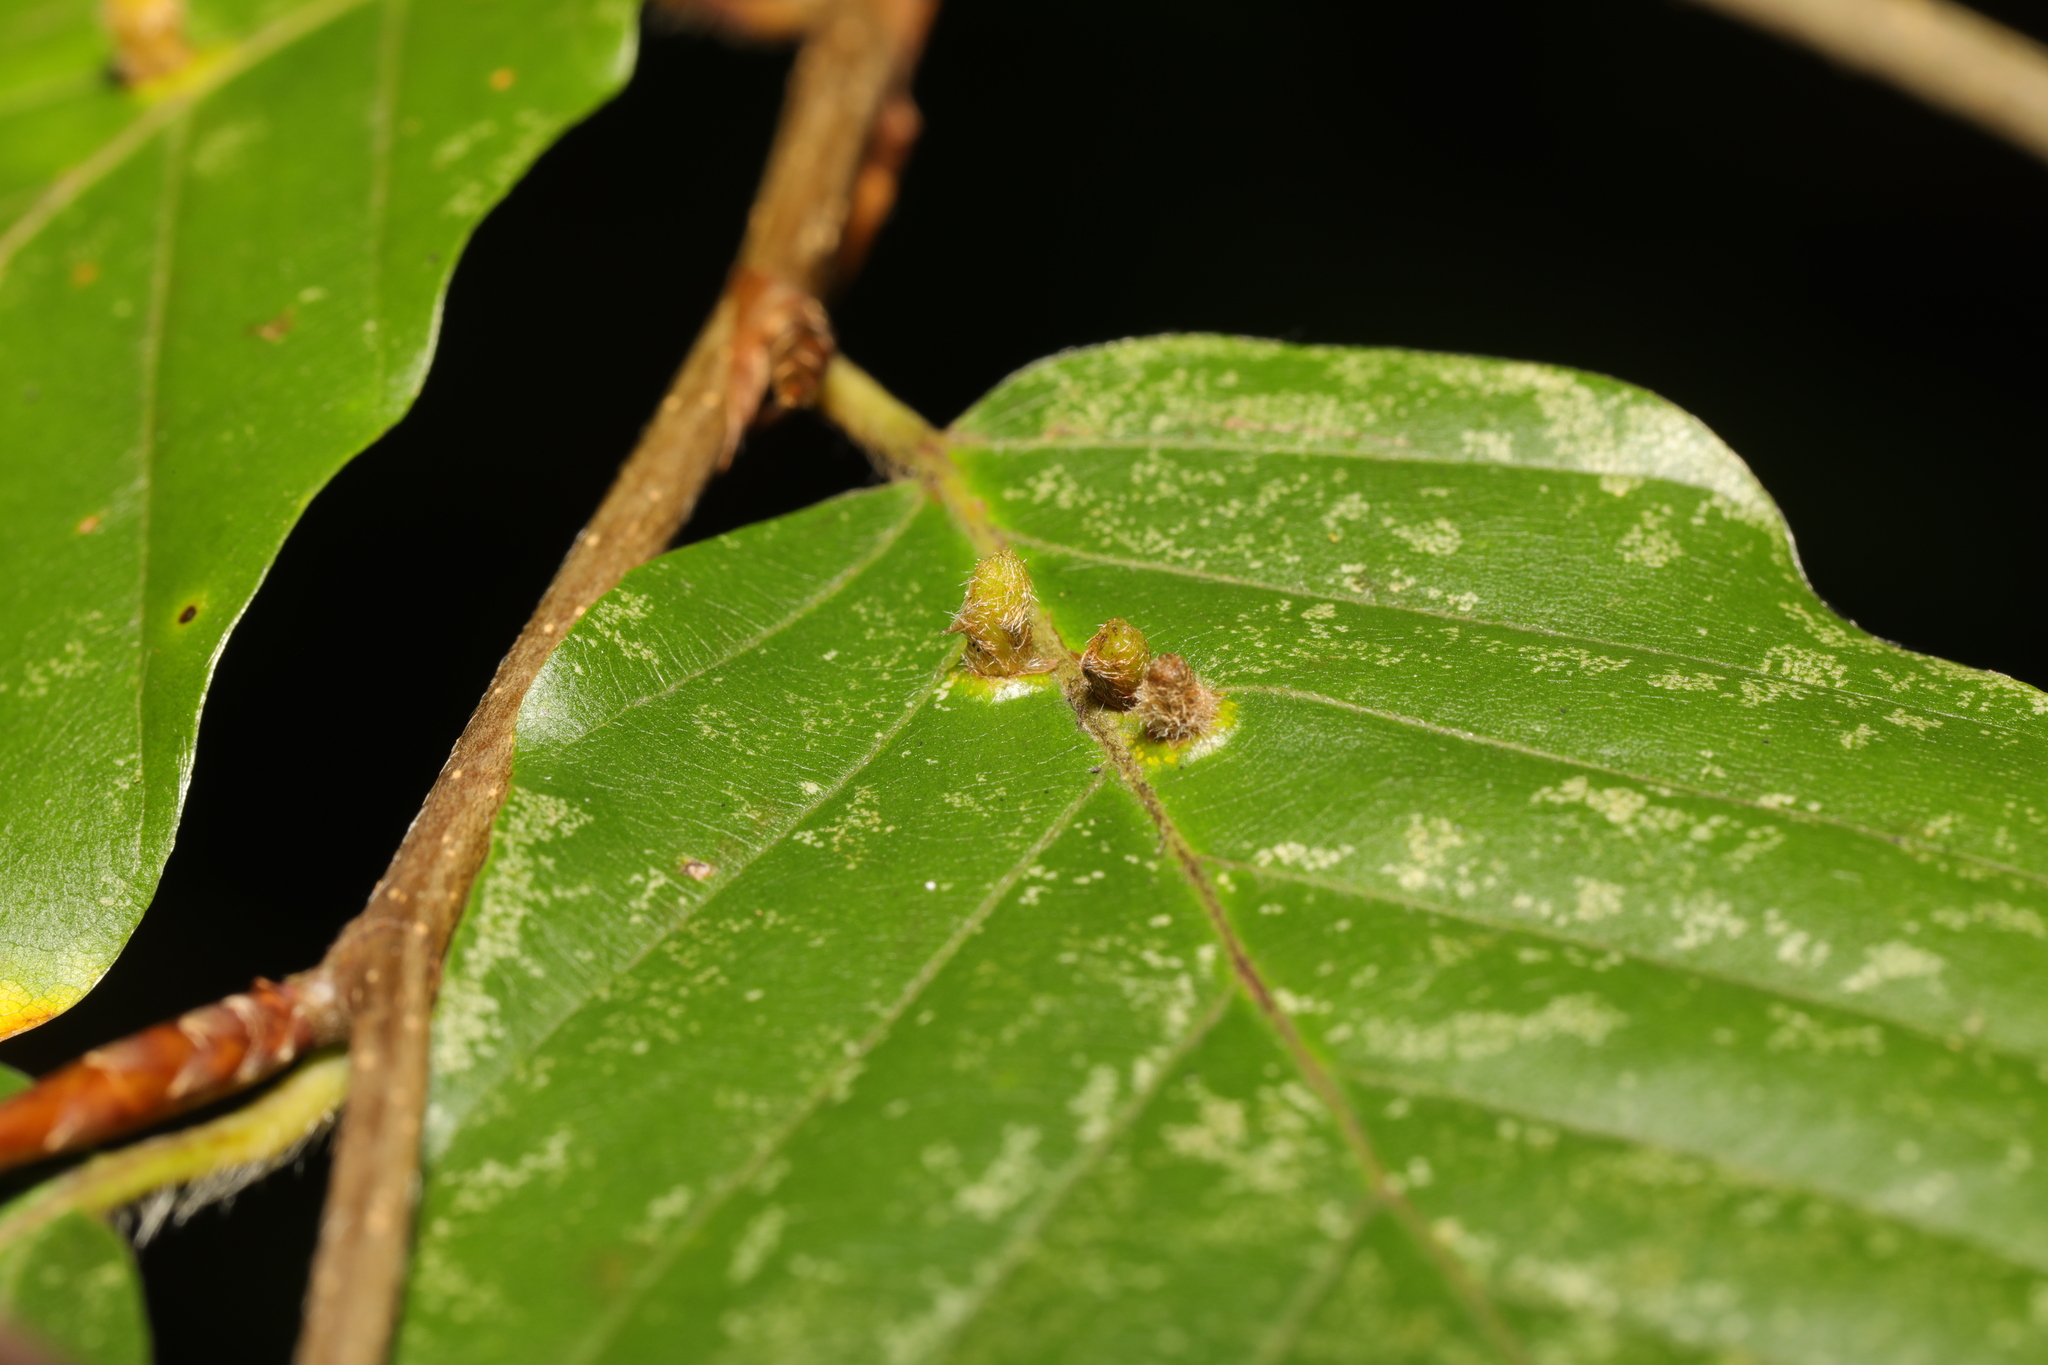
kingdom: Animalia
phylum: Arthropoda
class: Insecta
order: Diptera
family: Cecidomyiidae
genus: Hartigiola
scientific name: Hartigiola annulipes
